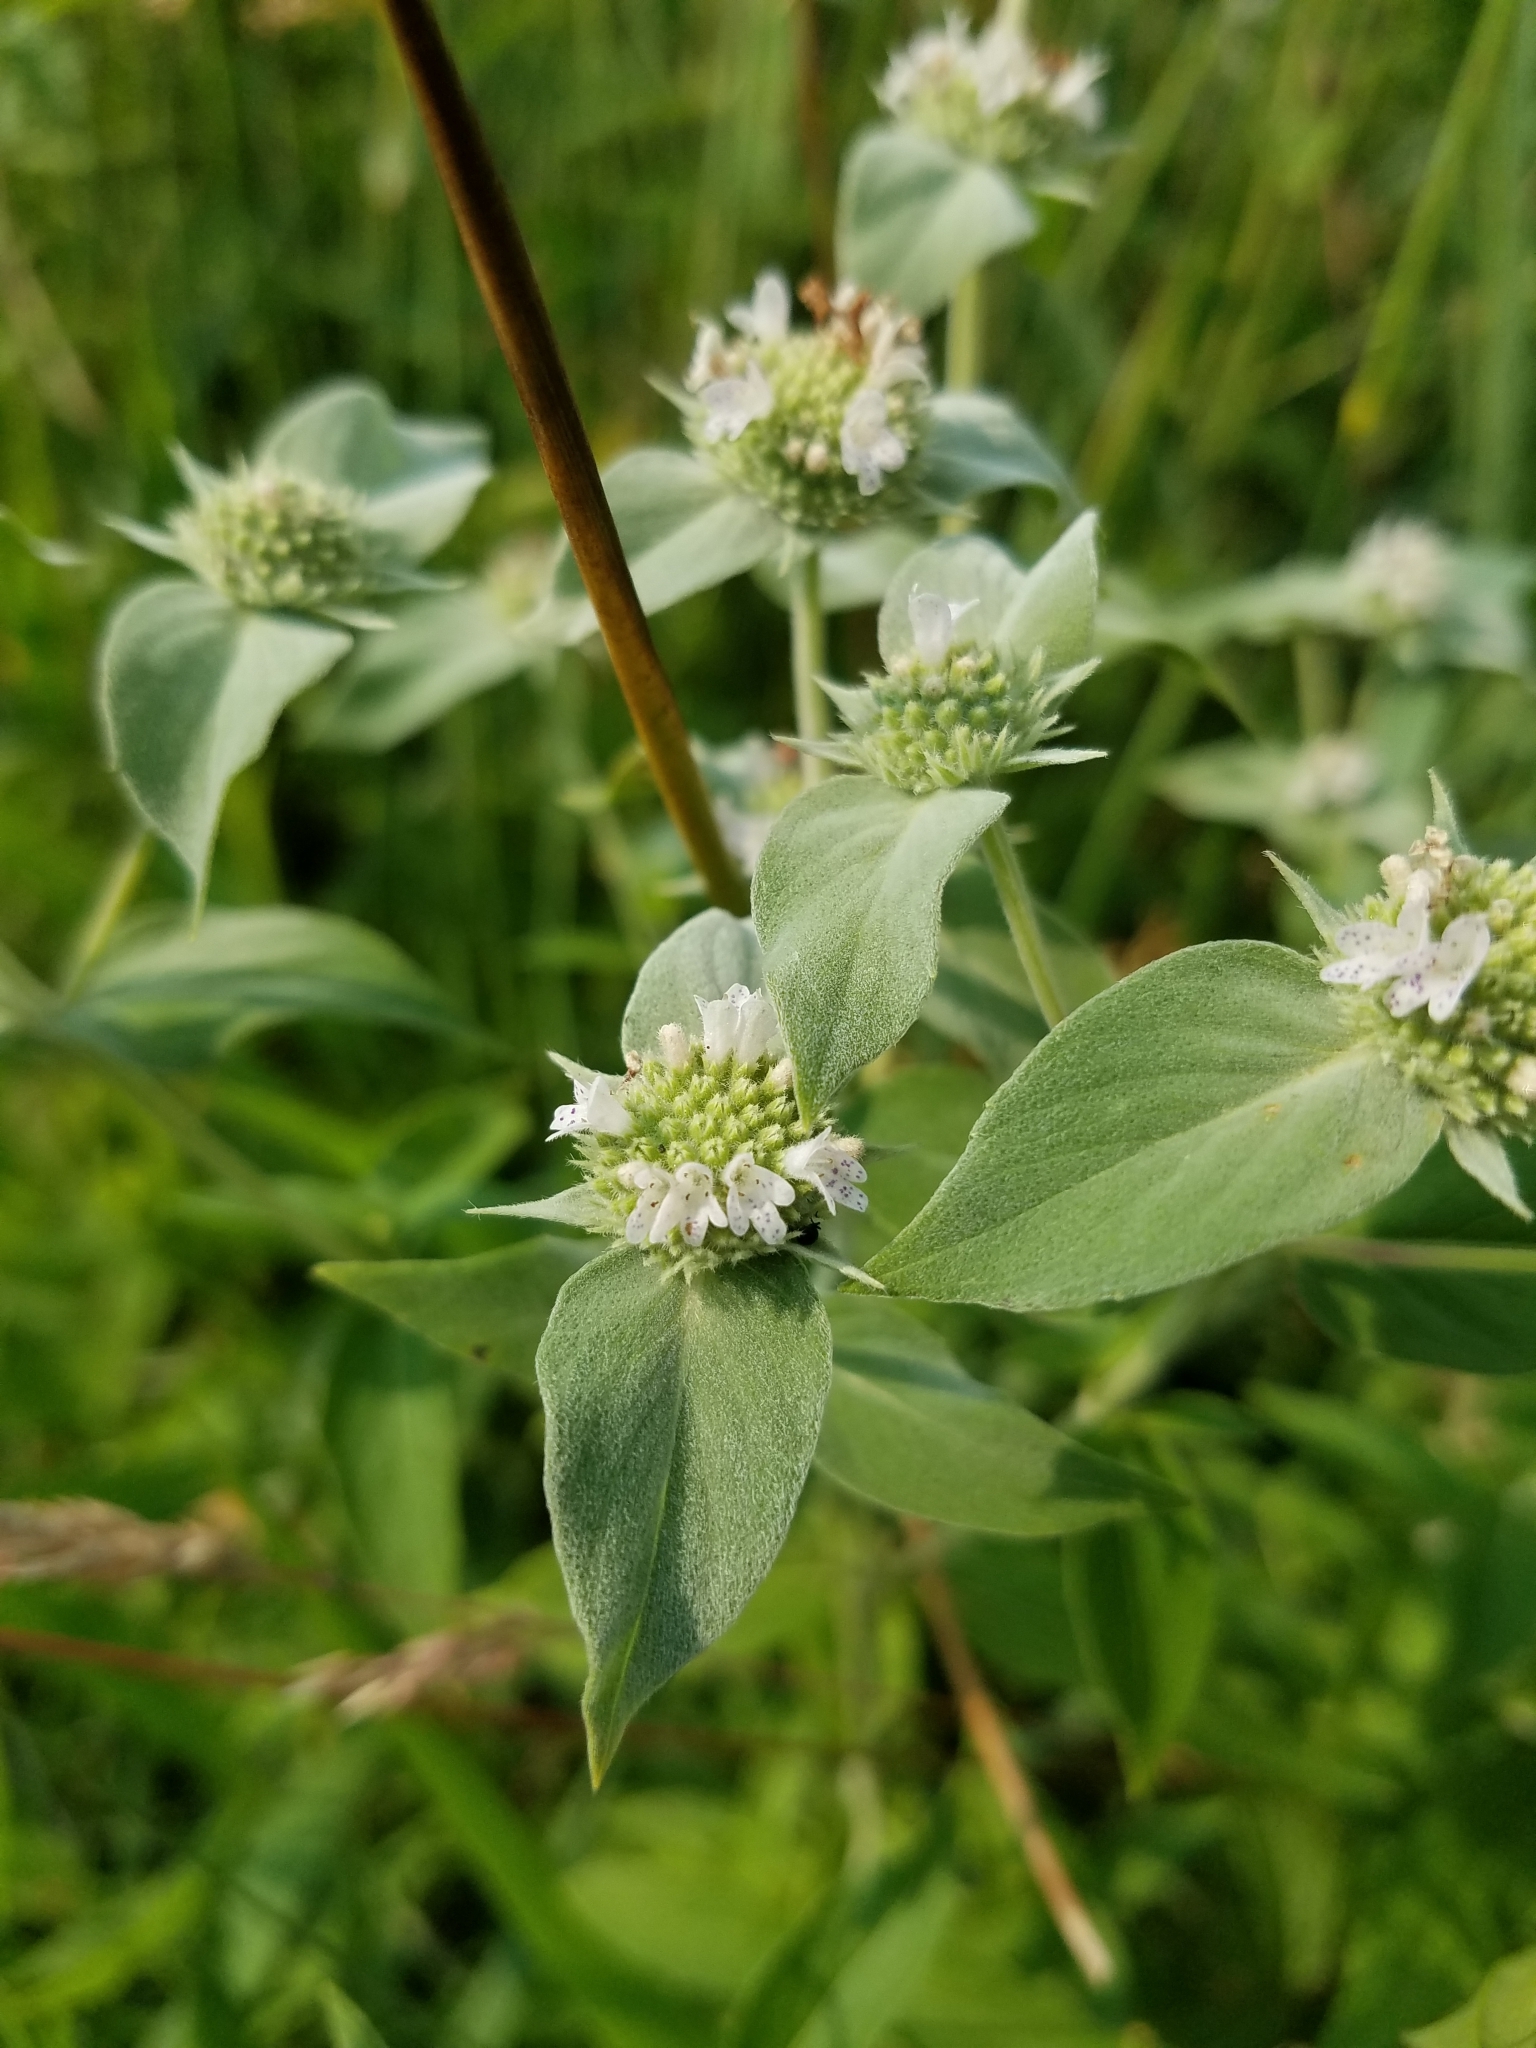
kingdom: Plantae
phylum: Tracheophyta
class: Magnoliopsida
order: Lamiales
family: Lamiaceae
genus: Pycnanthemum
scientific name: Pycnanthemum muticum
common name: Blunt mountain-mint
